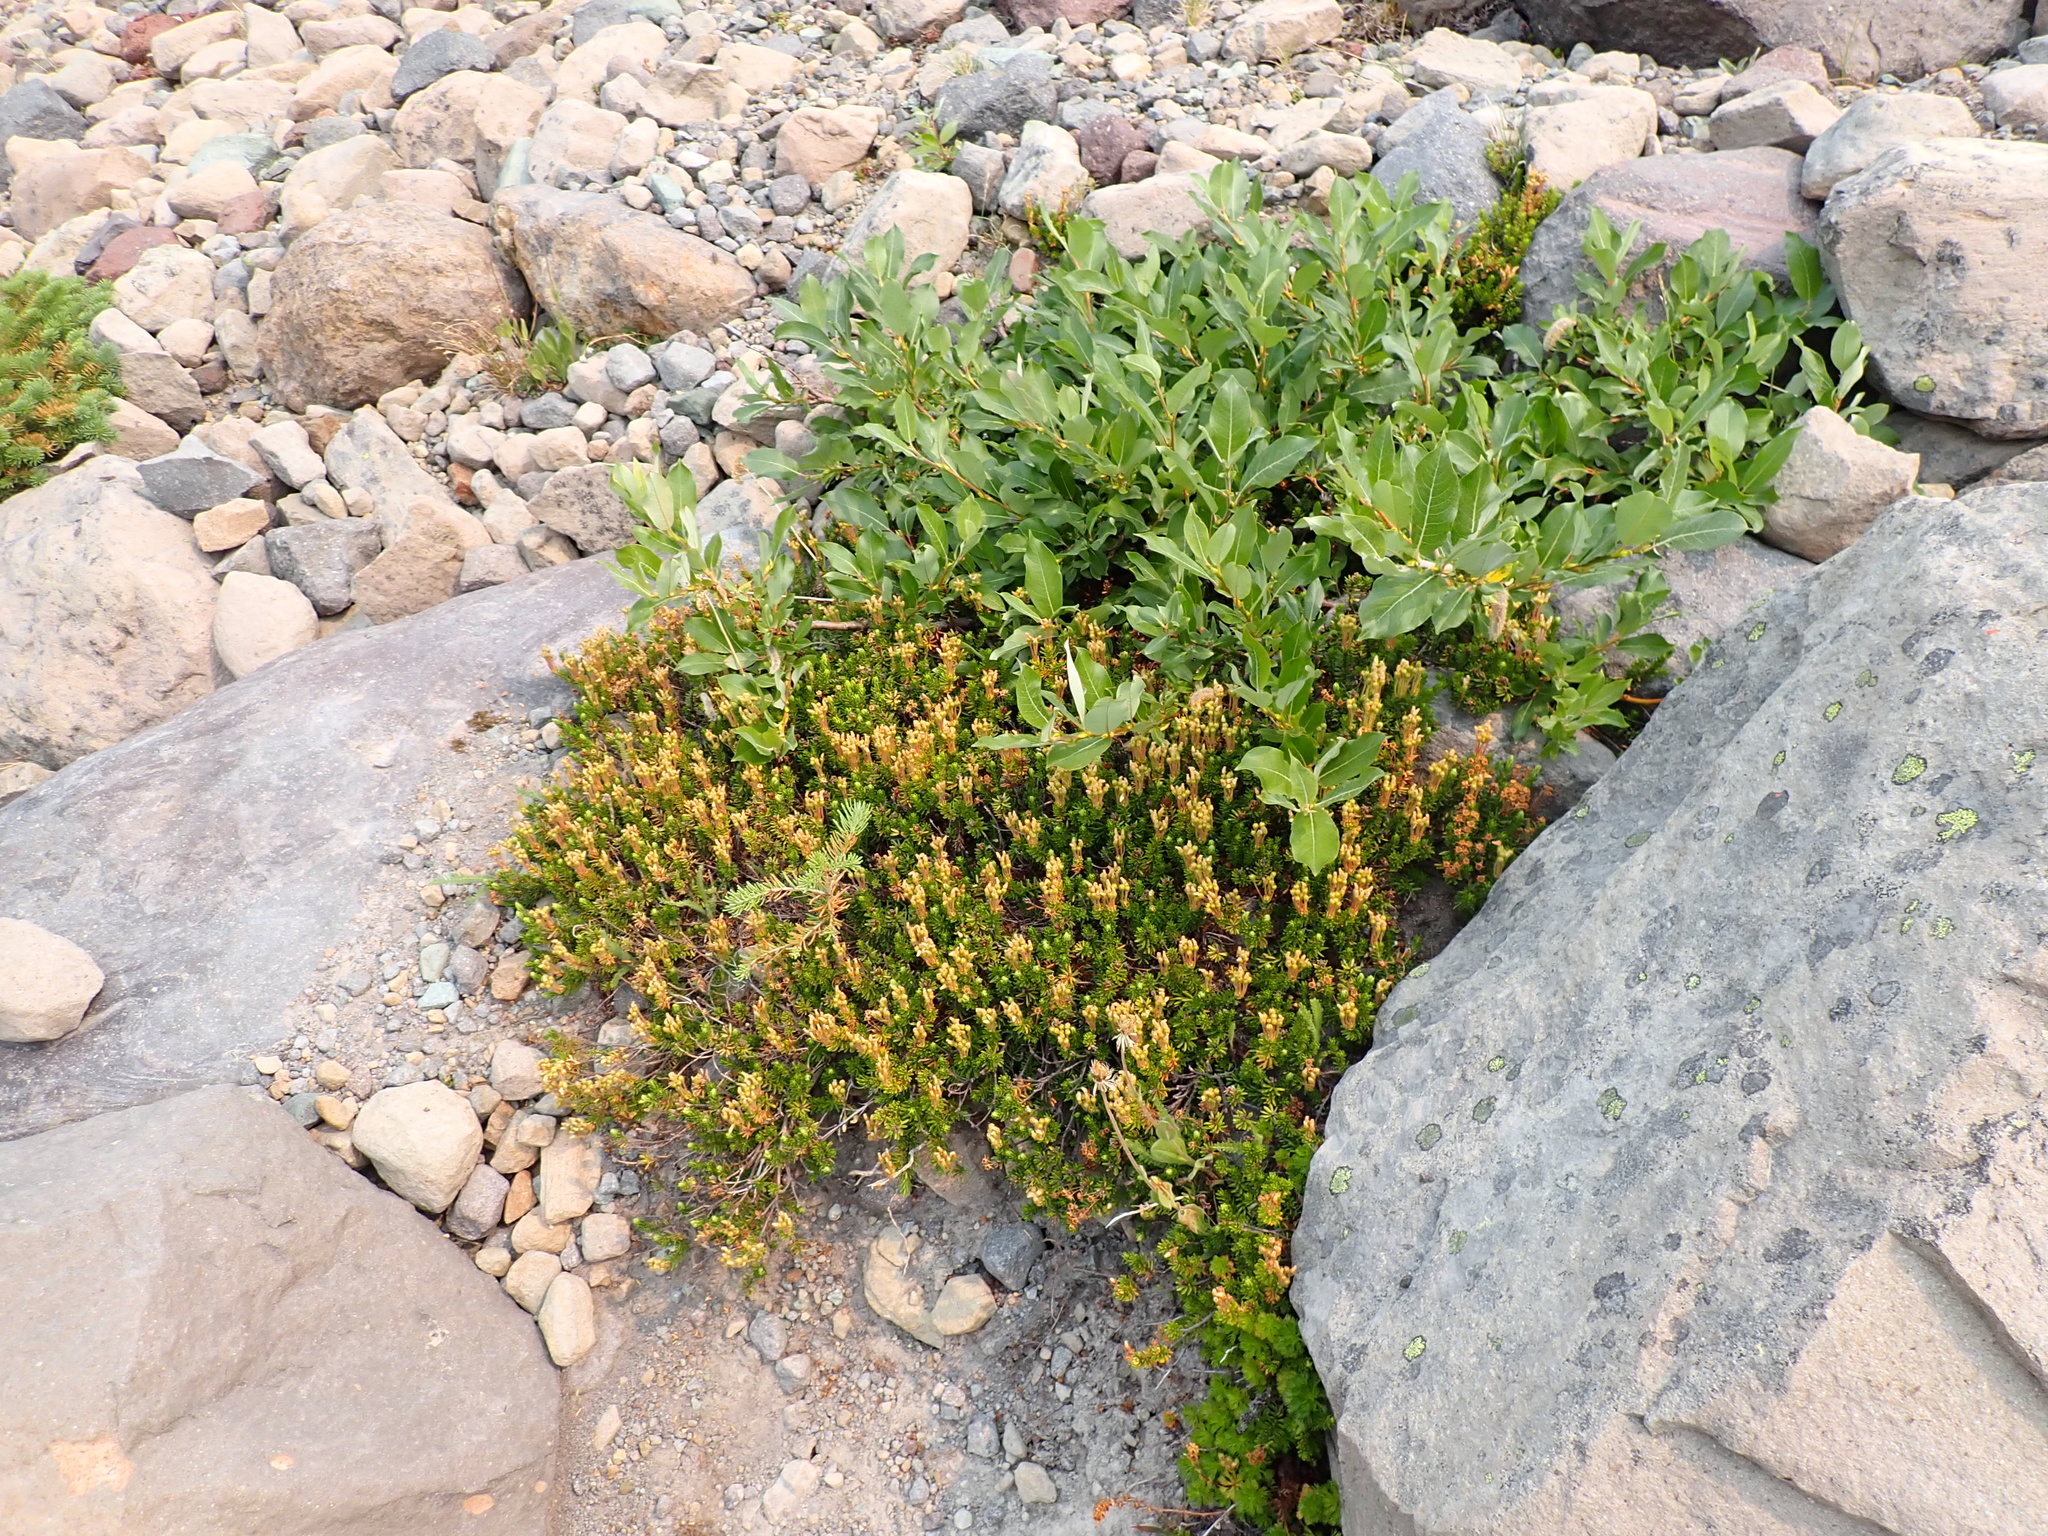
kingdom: Plantae
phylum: Tracheophyta
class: Magnoliopsida
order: Ericales
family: Ericaceae
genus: Phyllodoce
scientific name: Phyllodoce glanduliflora
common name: Cream mountain heather
